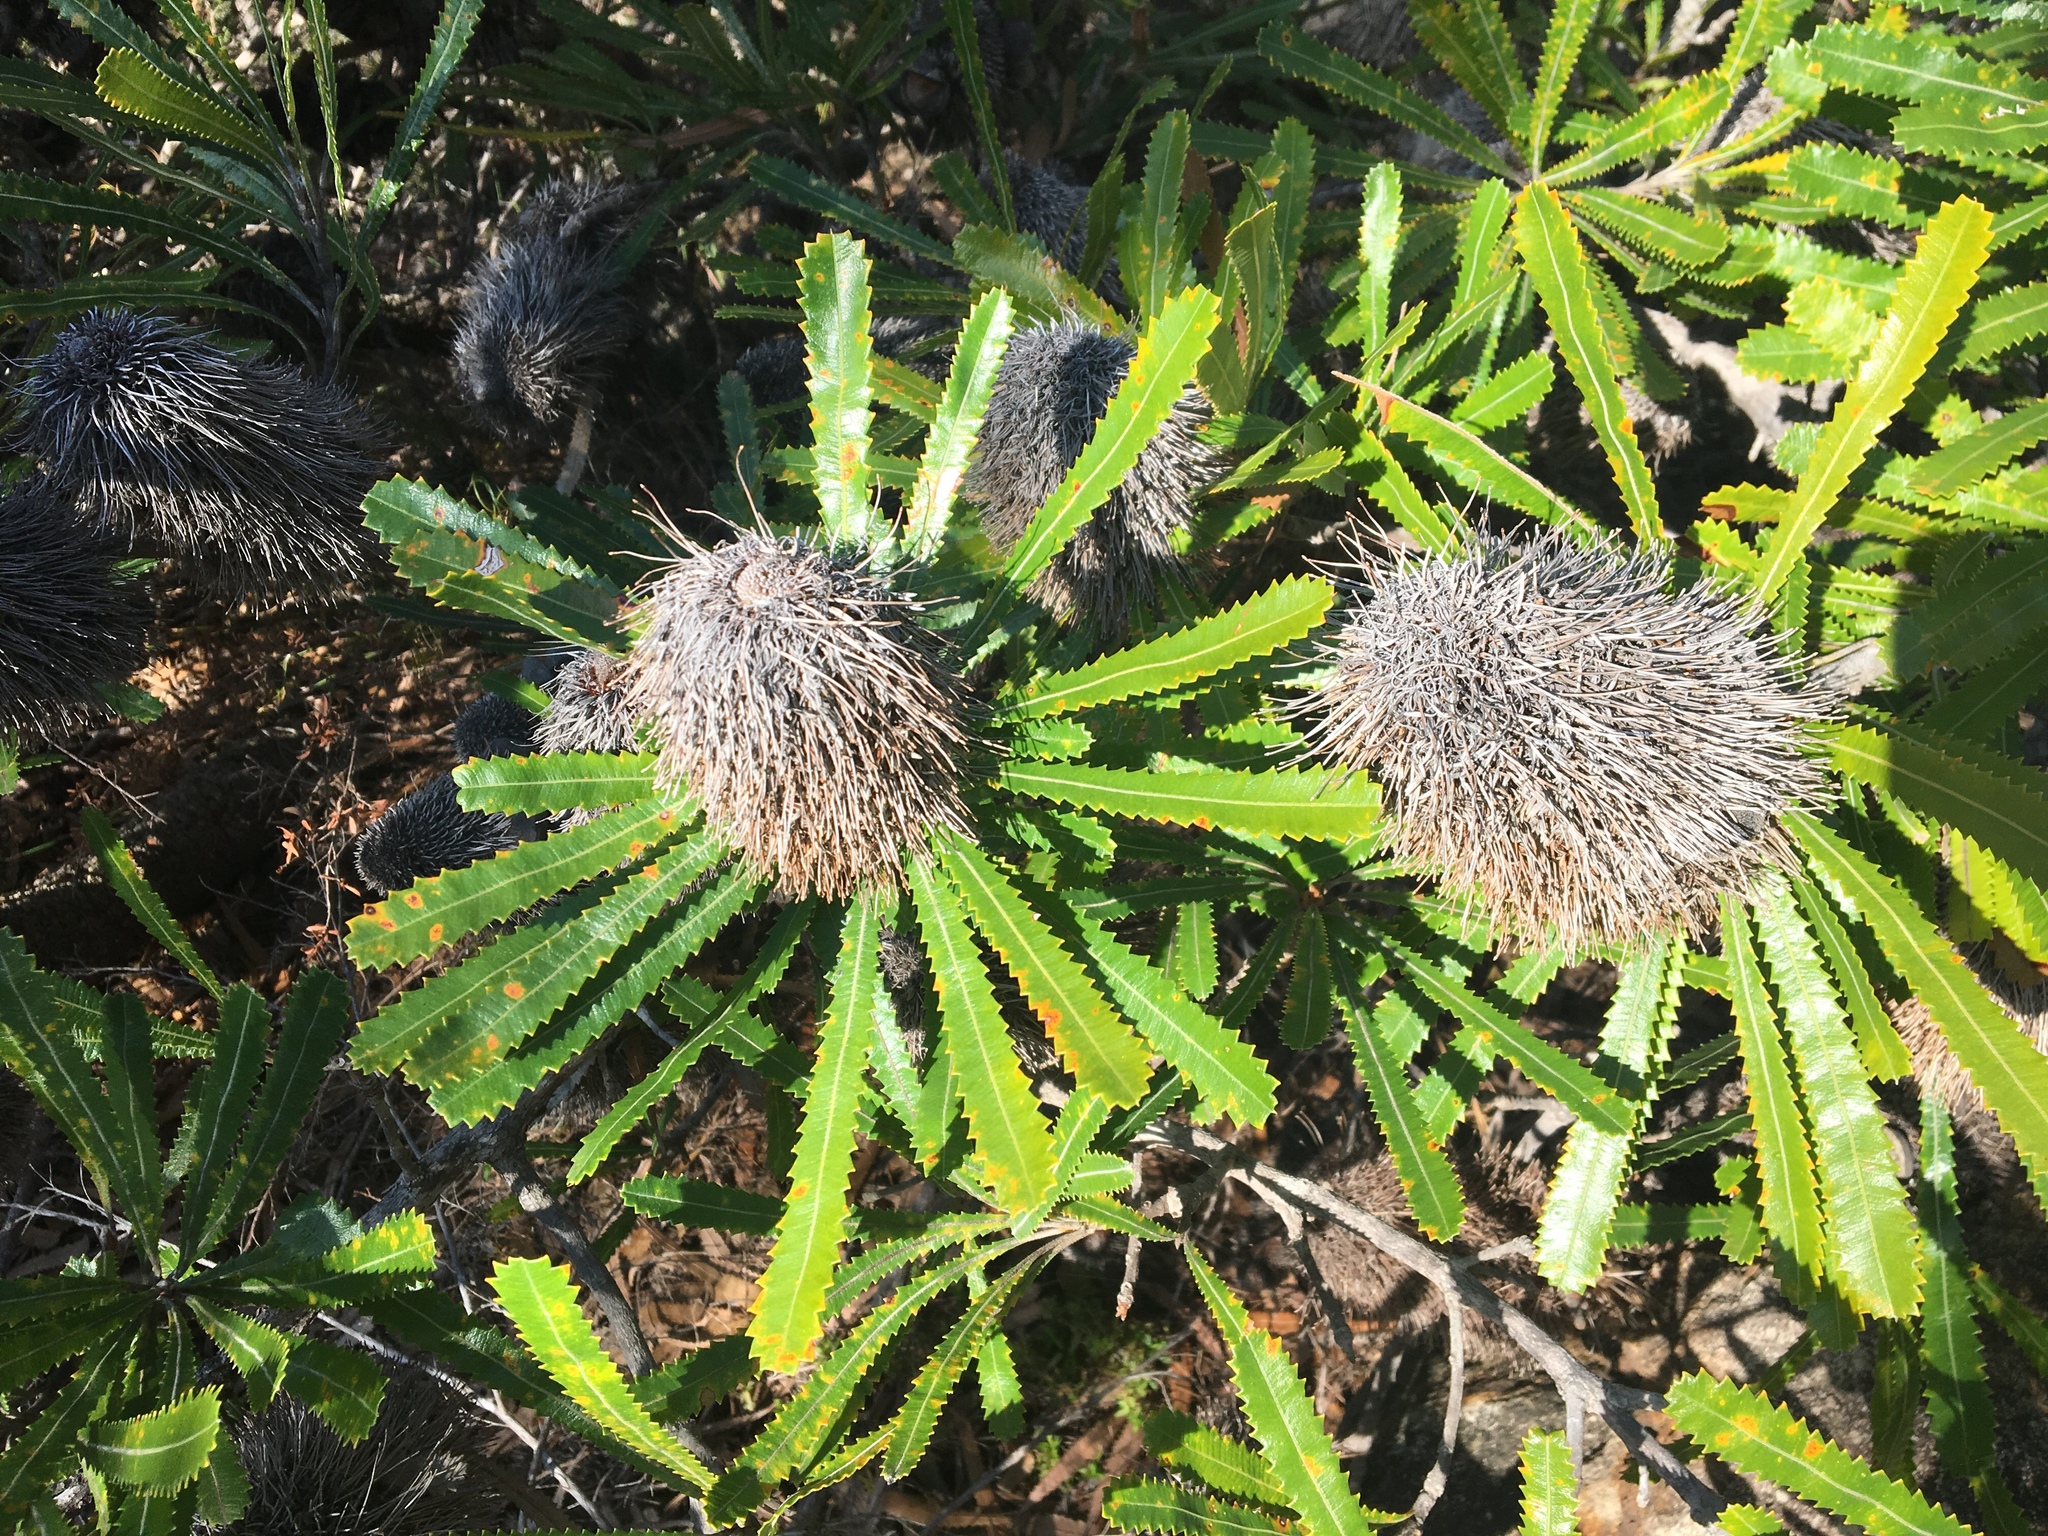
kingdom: Plantae
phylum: Tracheophyta
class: Magnoliopsida
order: Proteales
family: Proteaceae
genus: Banksia
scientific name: Banksia aemula
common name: Wallum banksia
